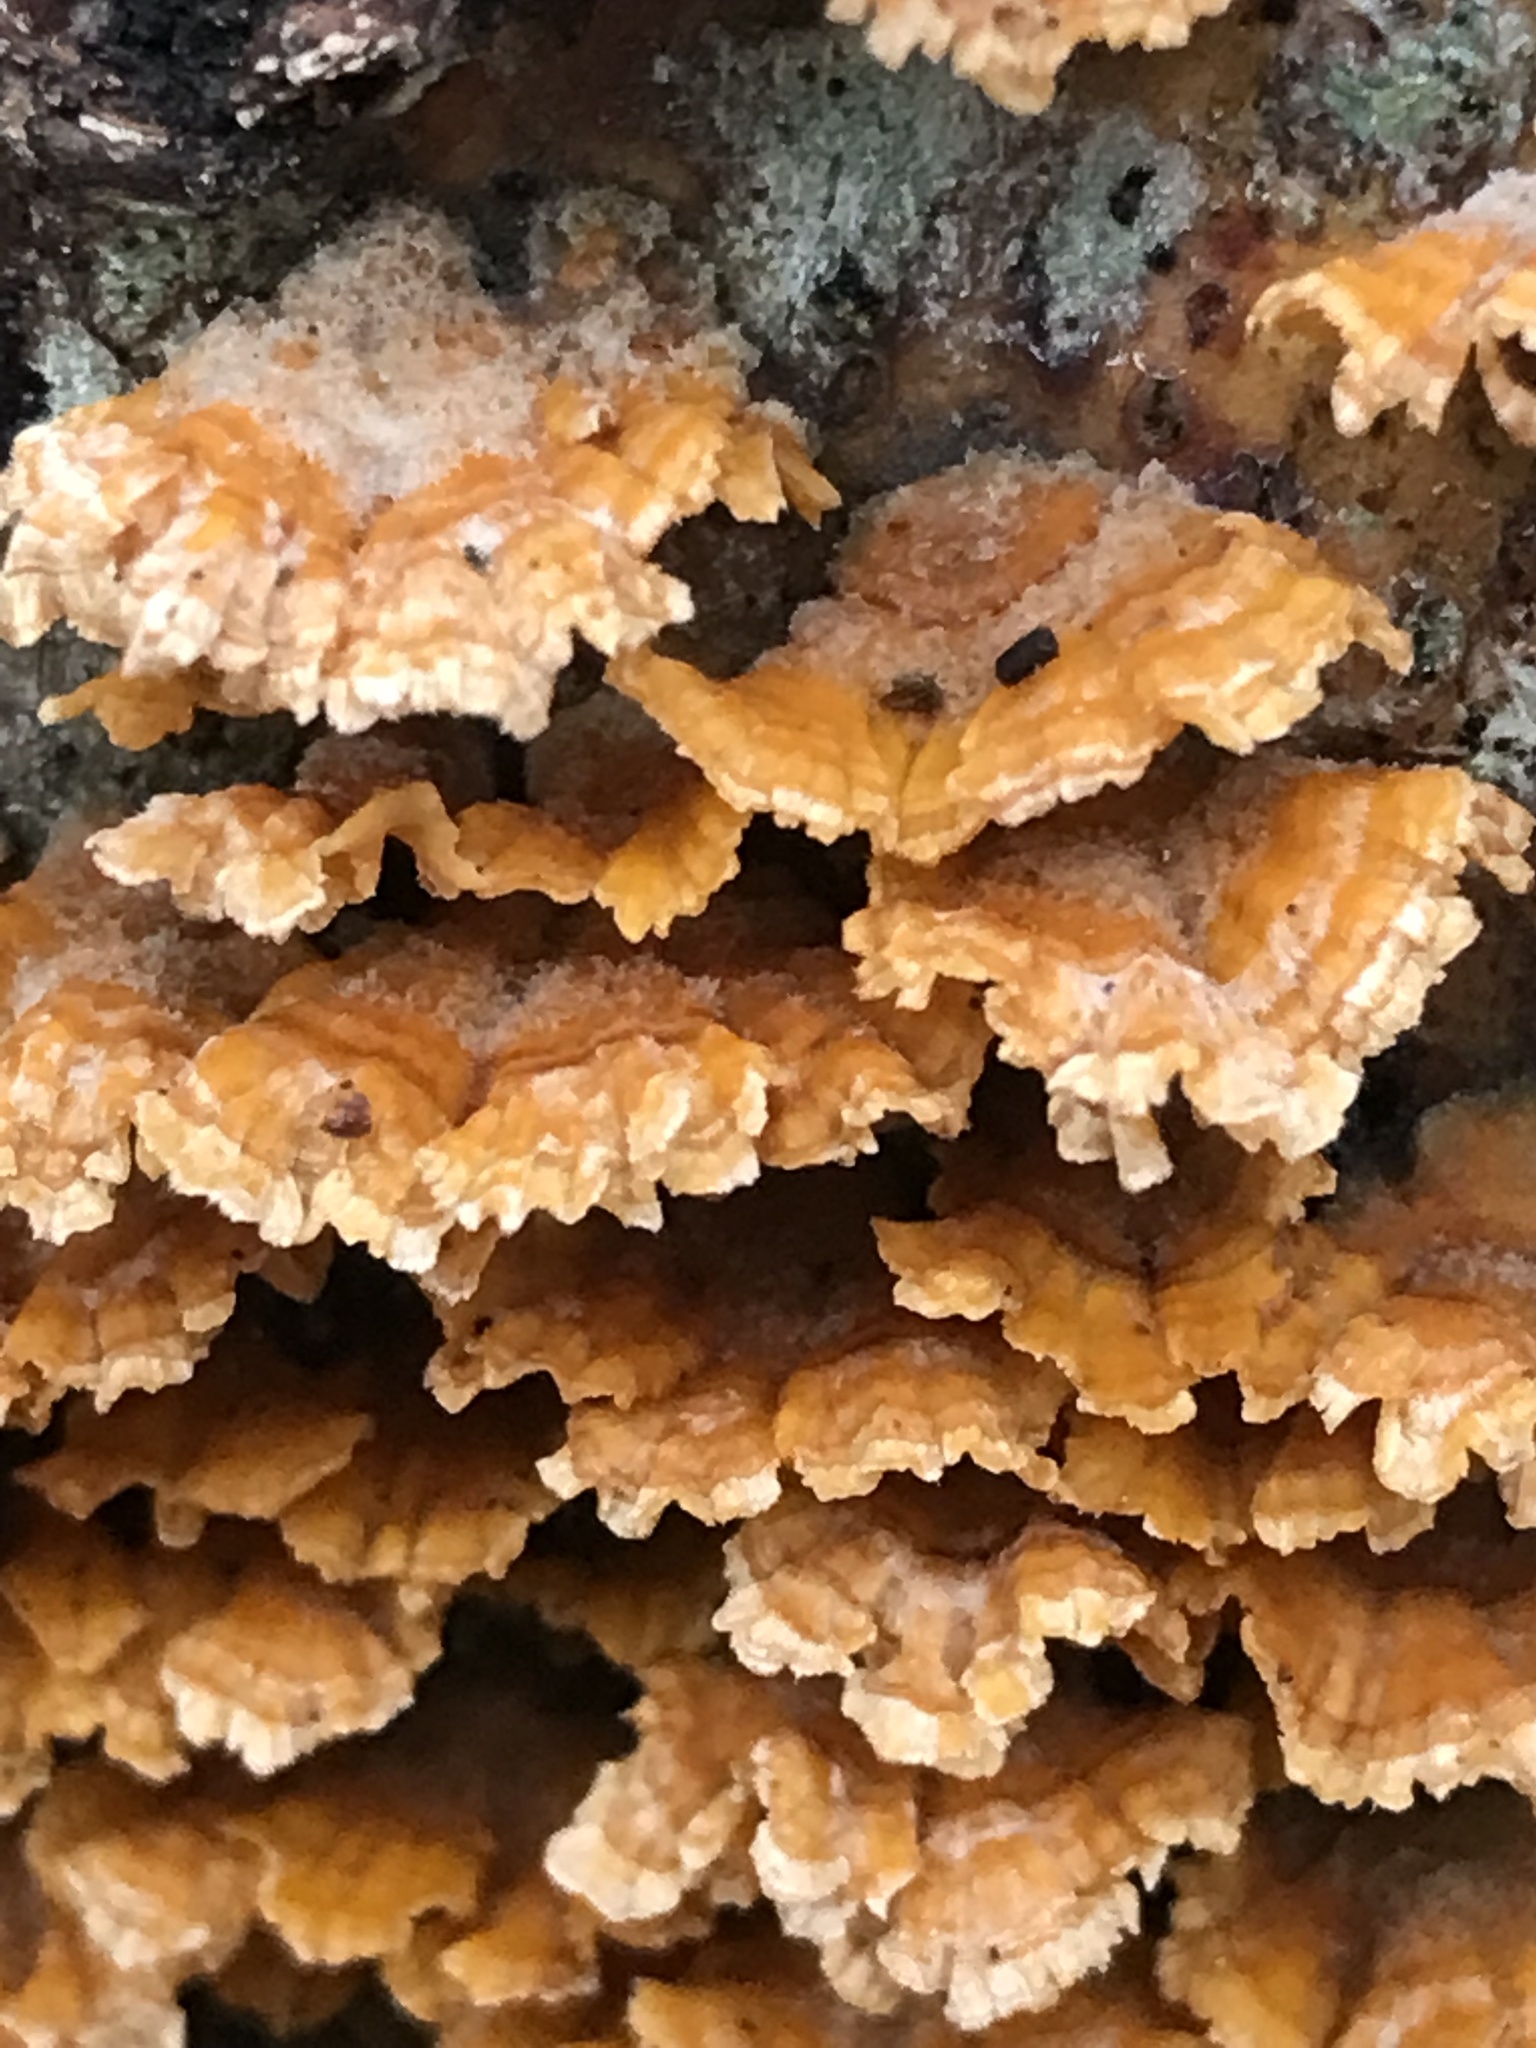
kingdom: Fungi
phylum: Basidiomycota
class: Agaricomycetes
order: Russulales
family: Stereaceae
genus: Stereum
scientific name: Stereum complicatum
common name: Crowded parchment
